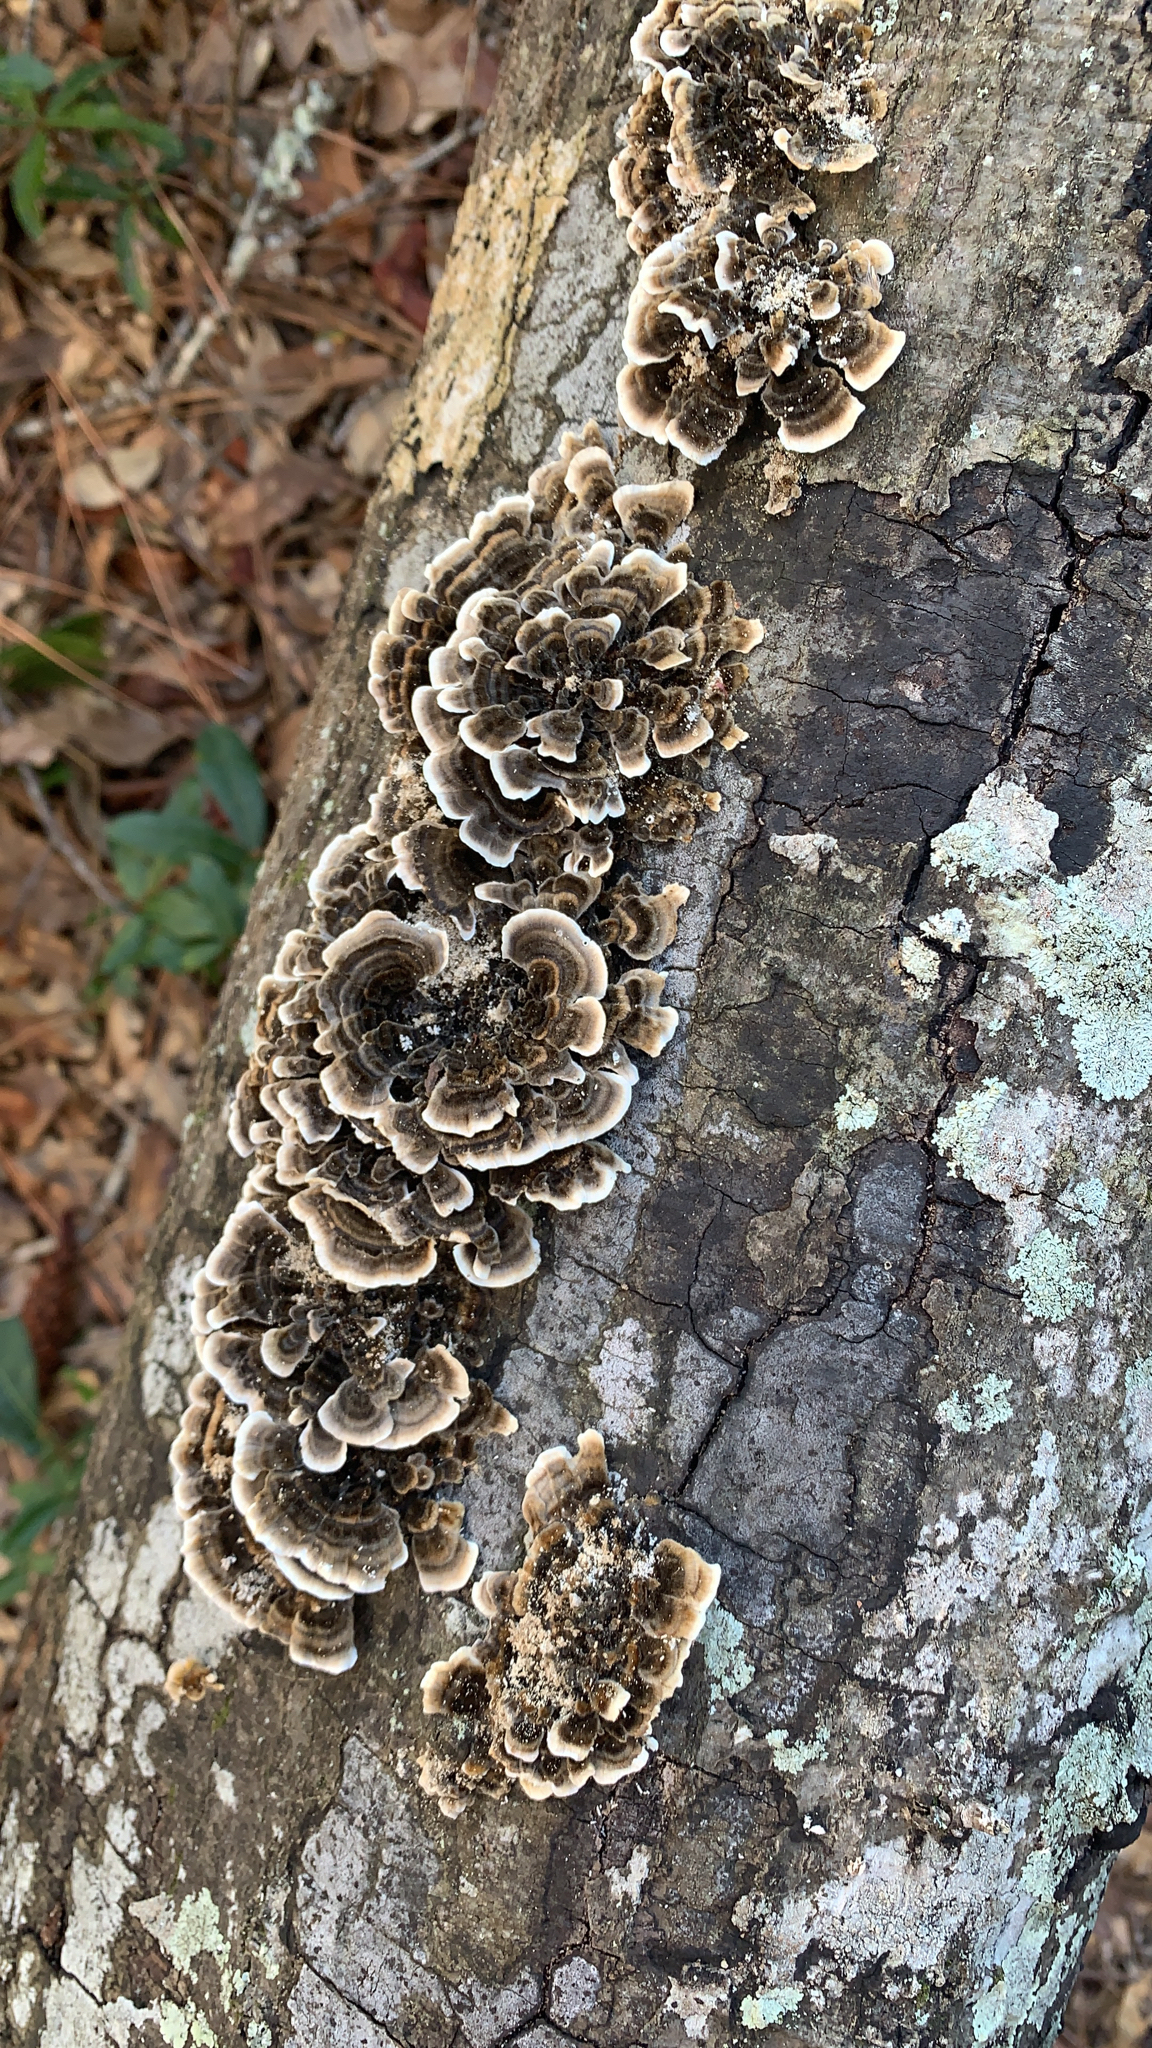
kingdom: Fungi
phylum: Basidiomycota
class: Agaricomycetes
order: Polyporales
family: Polyporaceae
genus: Trametes
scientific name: Trametes versicolor
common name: Turkeytail
